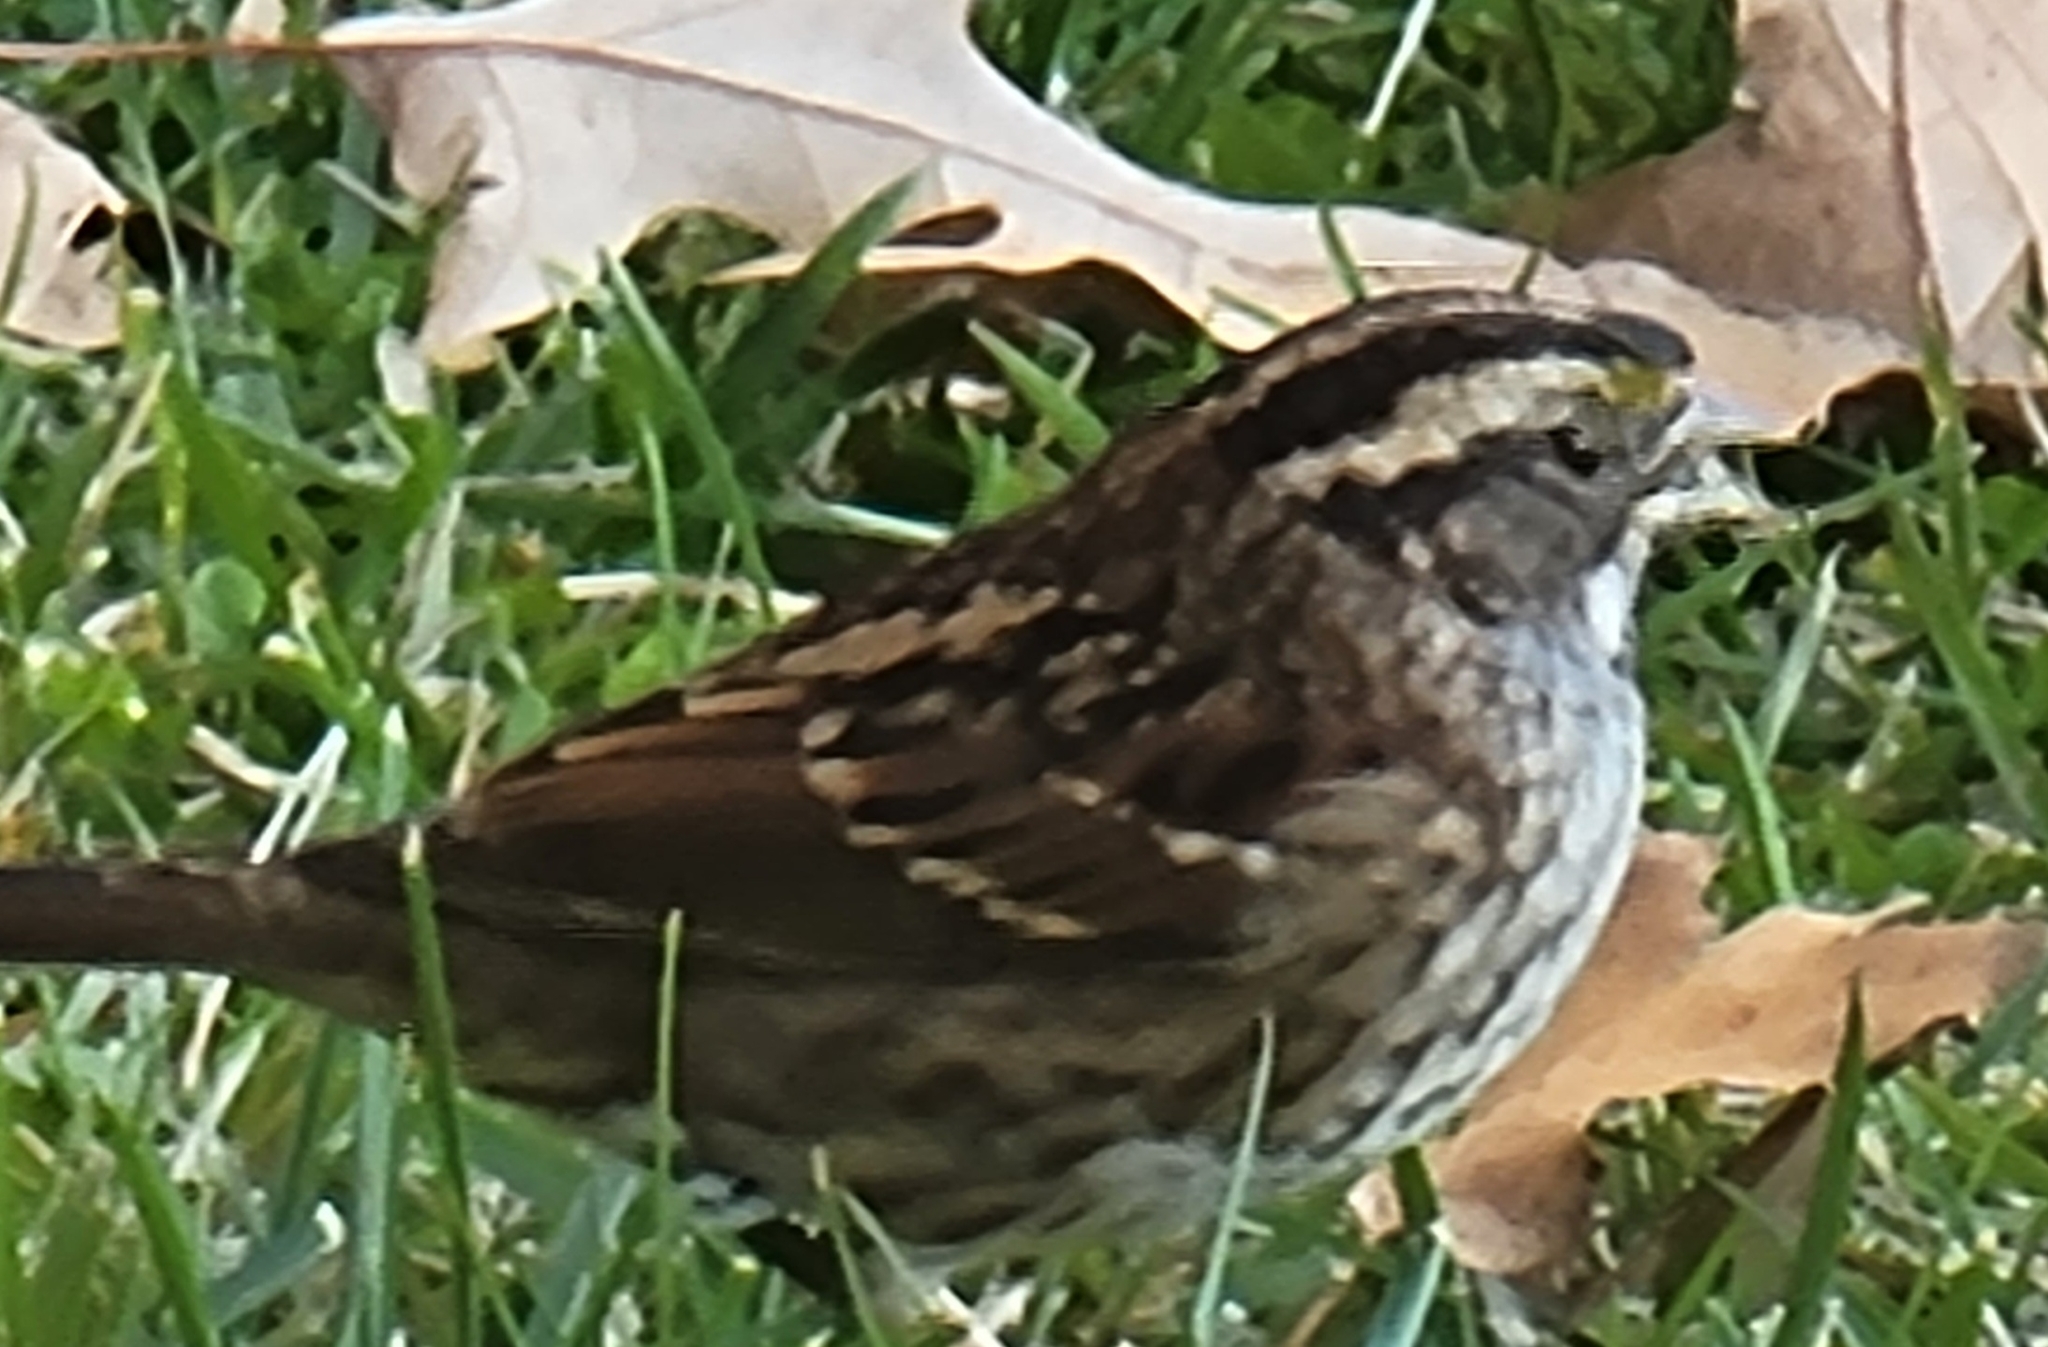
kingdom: Animalia
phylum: Chordata
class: Aves
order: Passeriformes
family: Passerellidae
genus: Zonotrichia
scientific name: Zonotrichia albicollis
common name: White-throated sparrow
